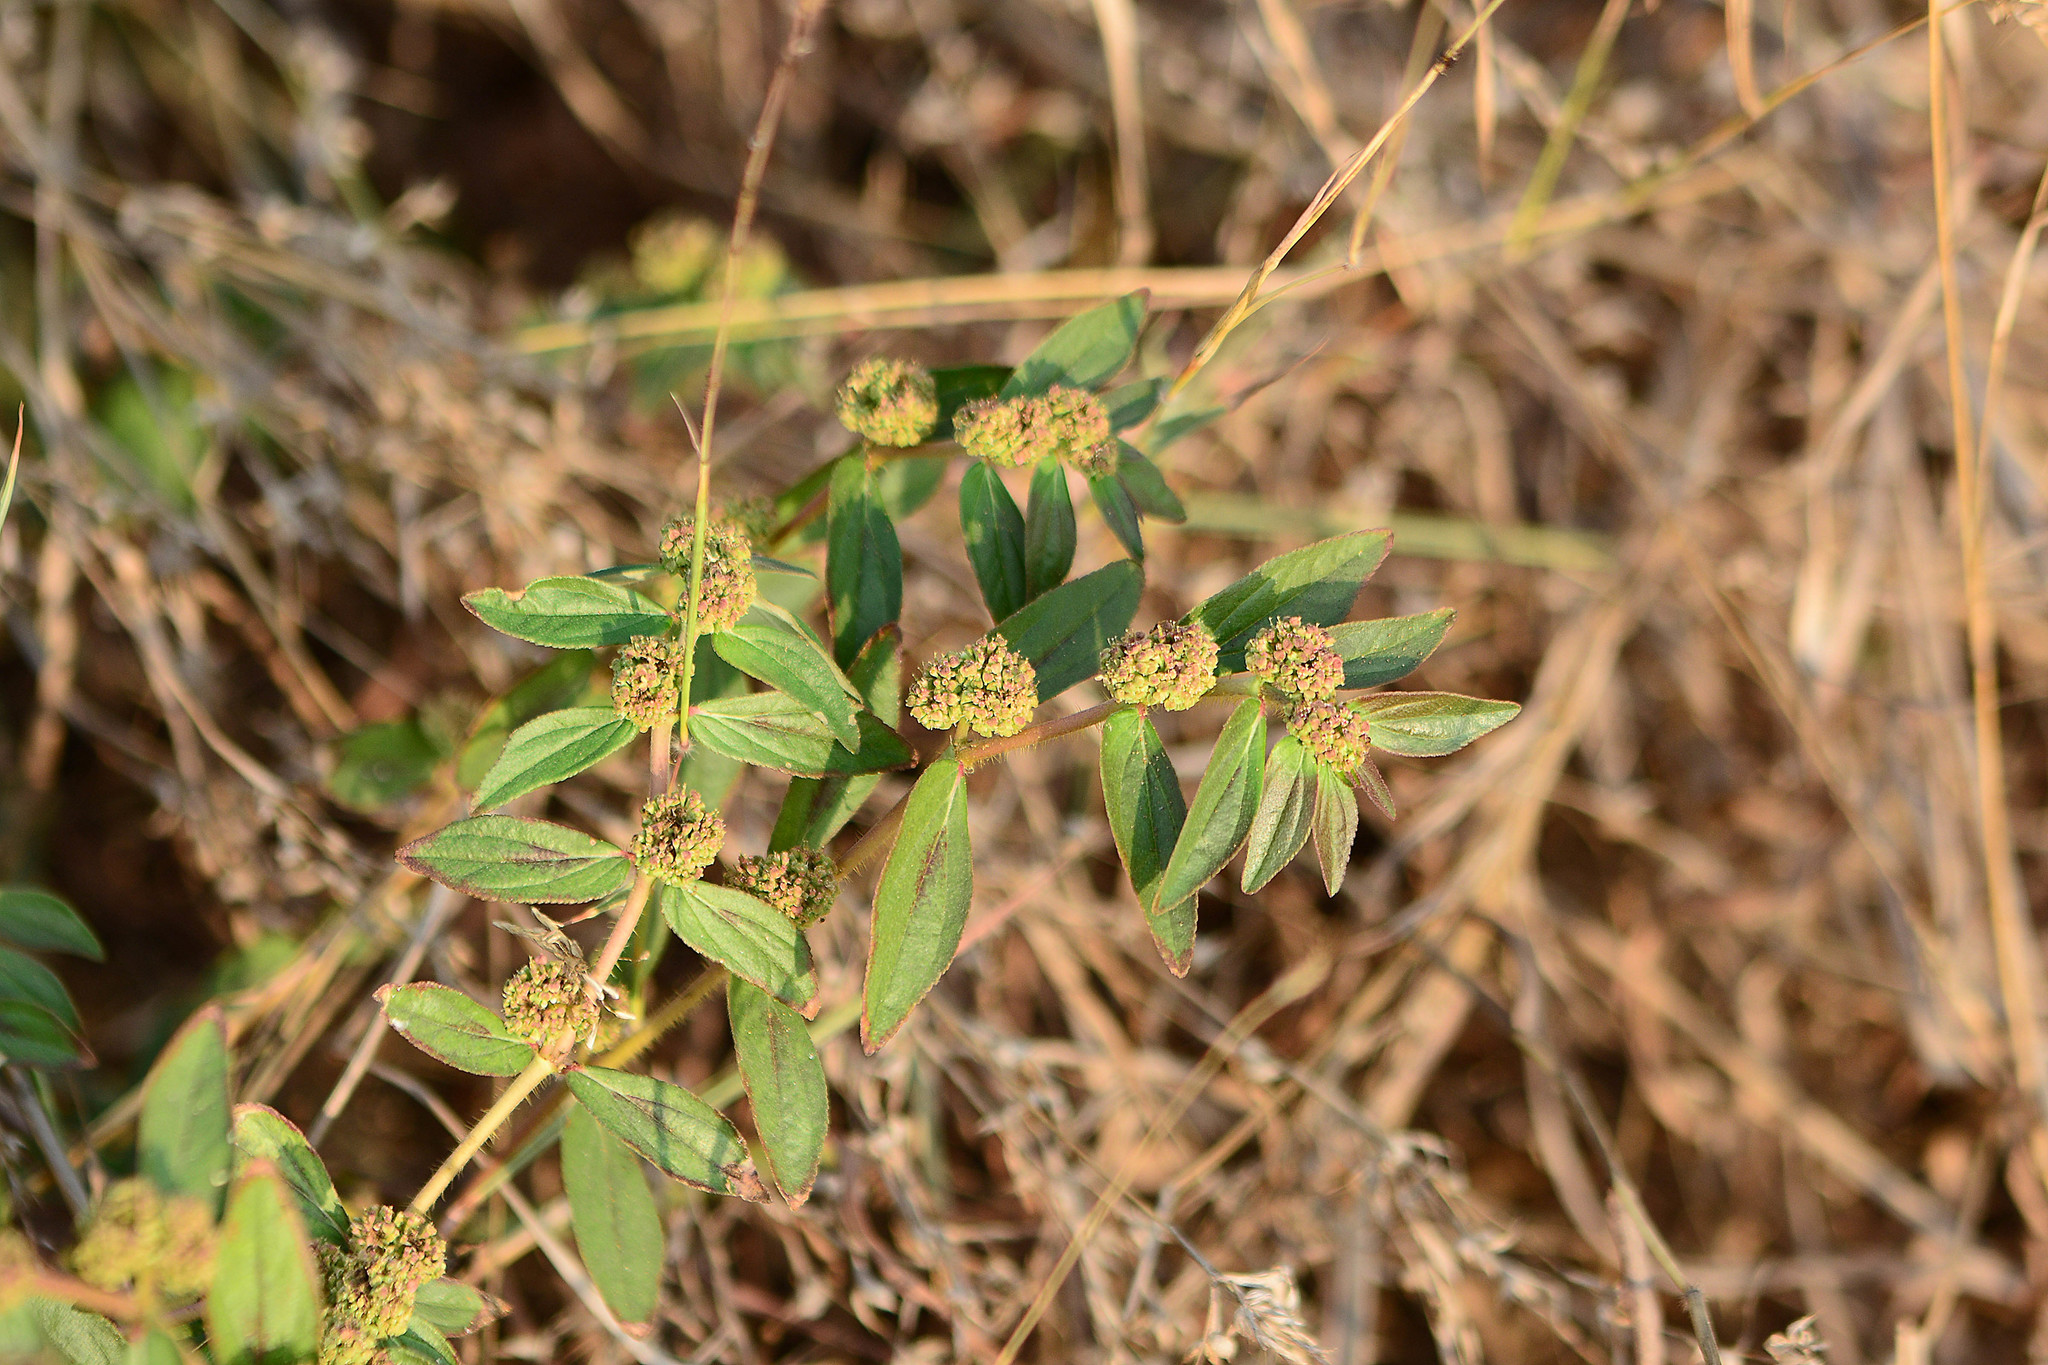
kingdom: Plantae
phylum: Tracheophyta
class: Magnoliopsida
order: Malpighiales
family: Euphorbiaceae
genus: Euphorbia
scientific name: Euphorbia hirta
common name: Pillpod sandmat
